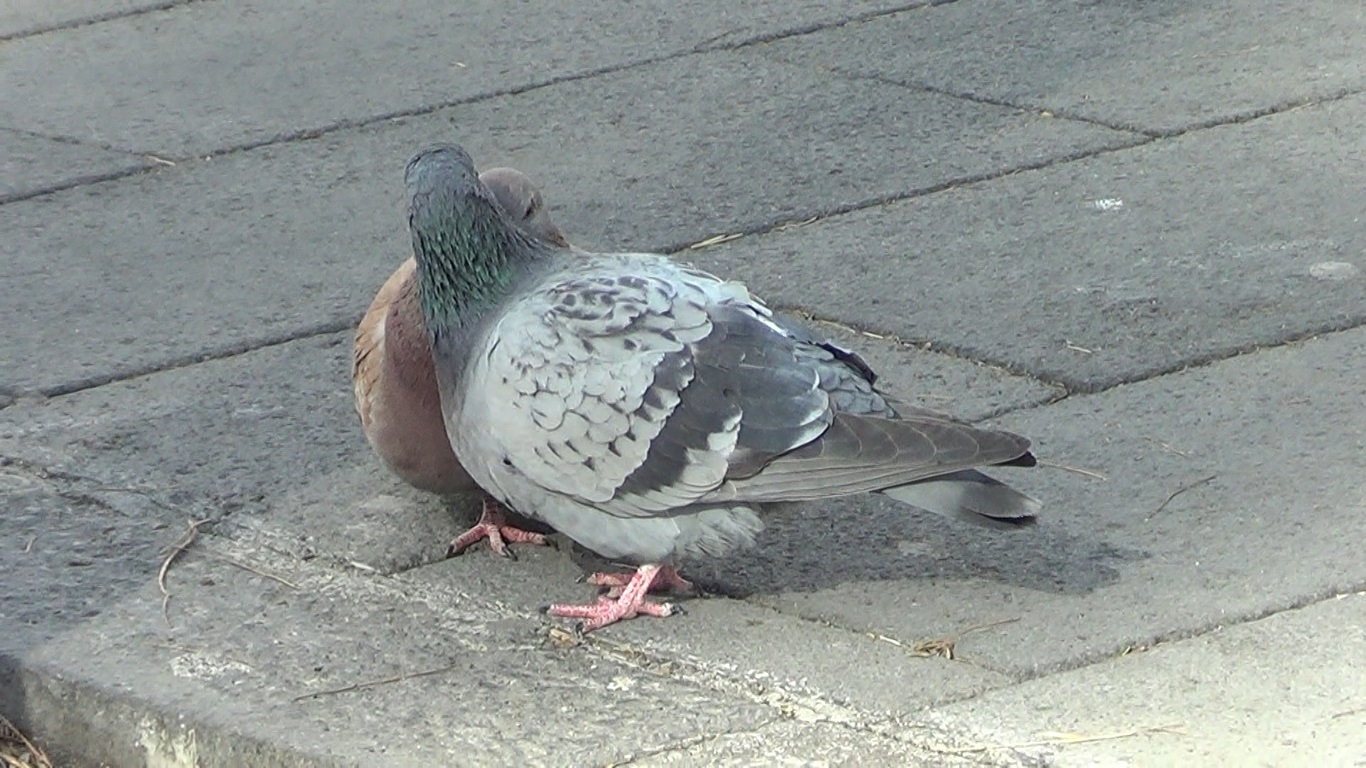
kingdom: Animalia
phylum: Chordata
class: Aves
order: Columbiformes
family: Columbidae
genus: Columba
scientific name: Columba livia
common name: Rock pigeon
